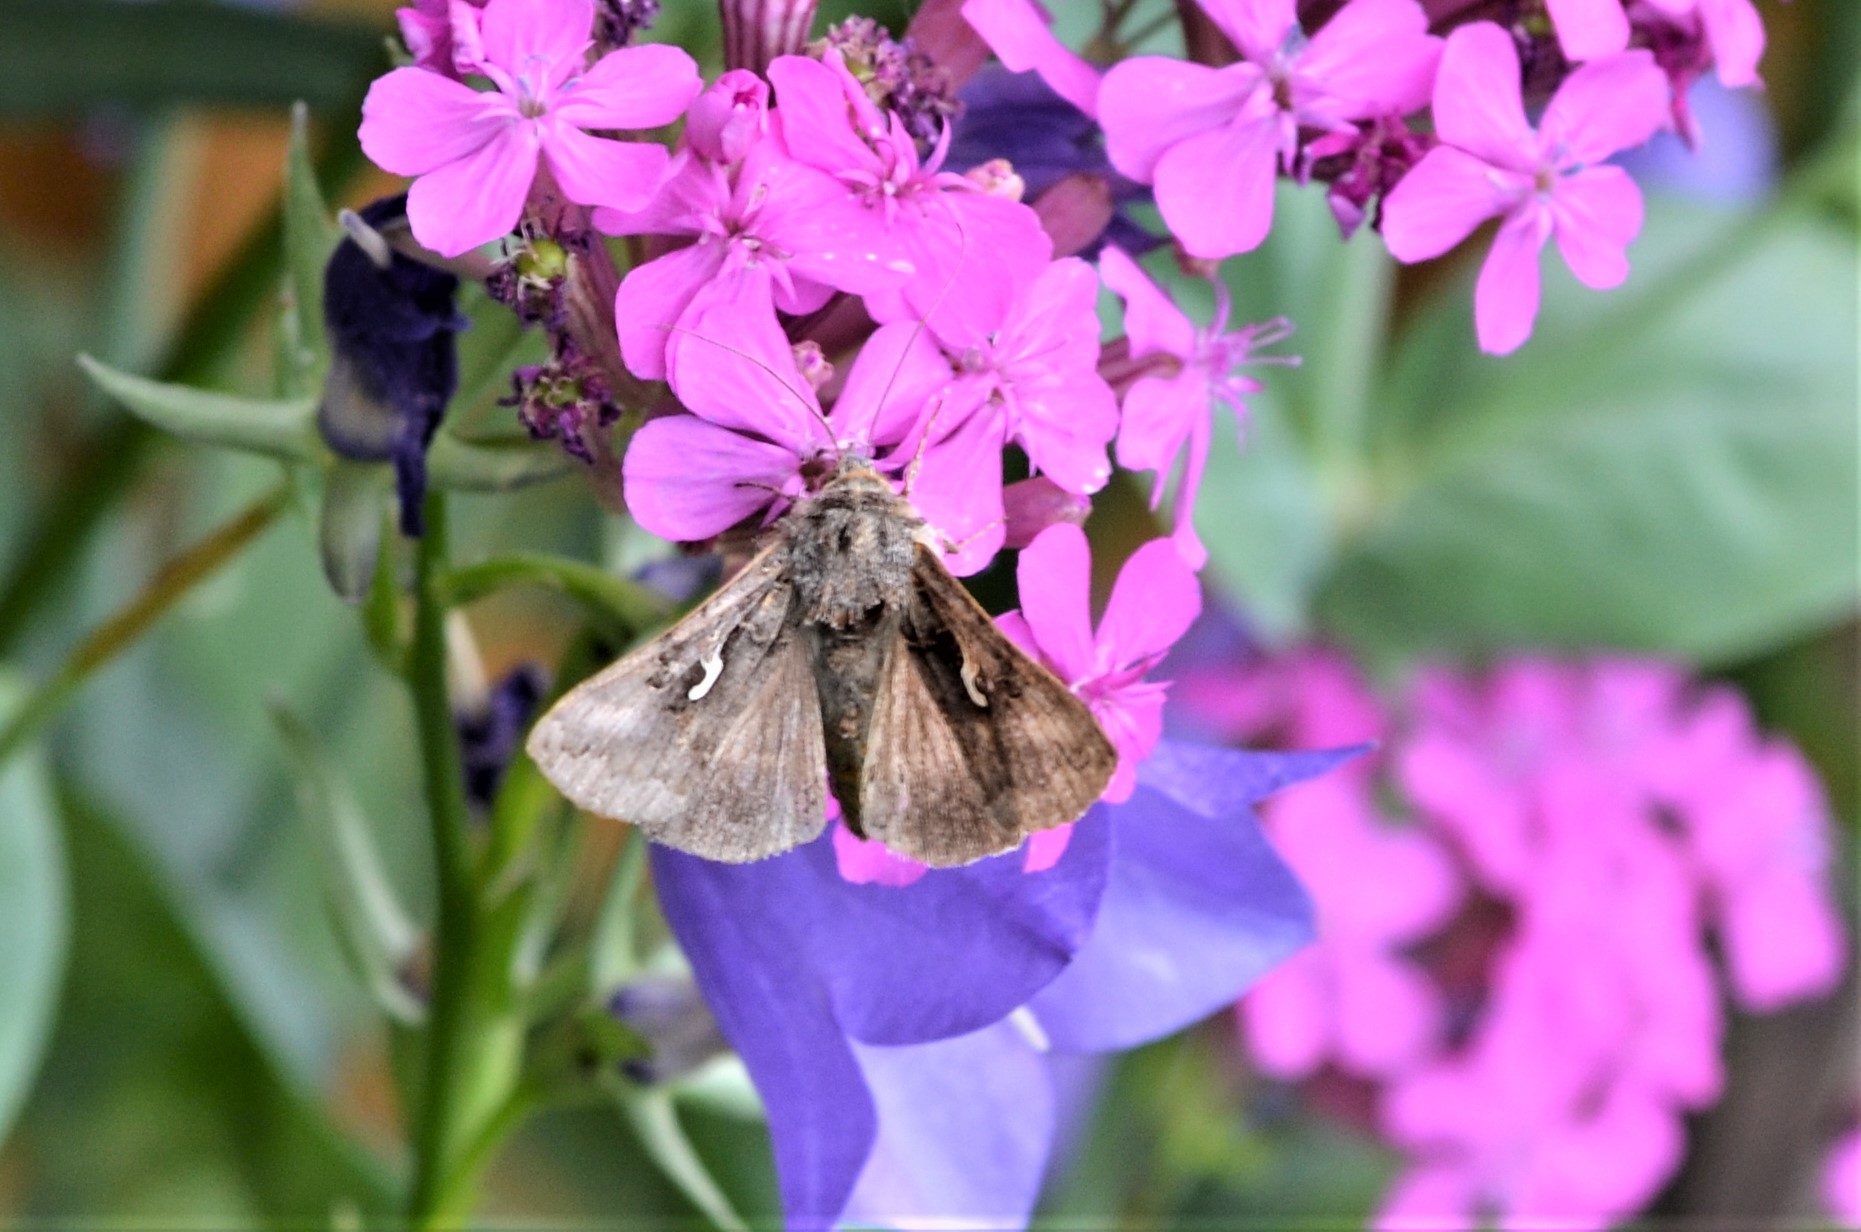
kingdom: Animalia
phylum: Arthropoda
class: Insecta
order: Lepidoptera
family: Noctuidae
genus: Autographa
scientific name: Autographa gamma
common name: Silver y
